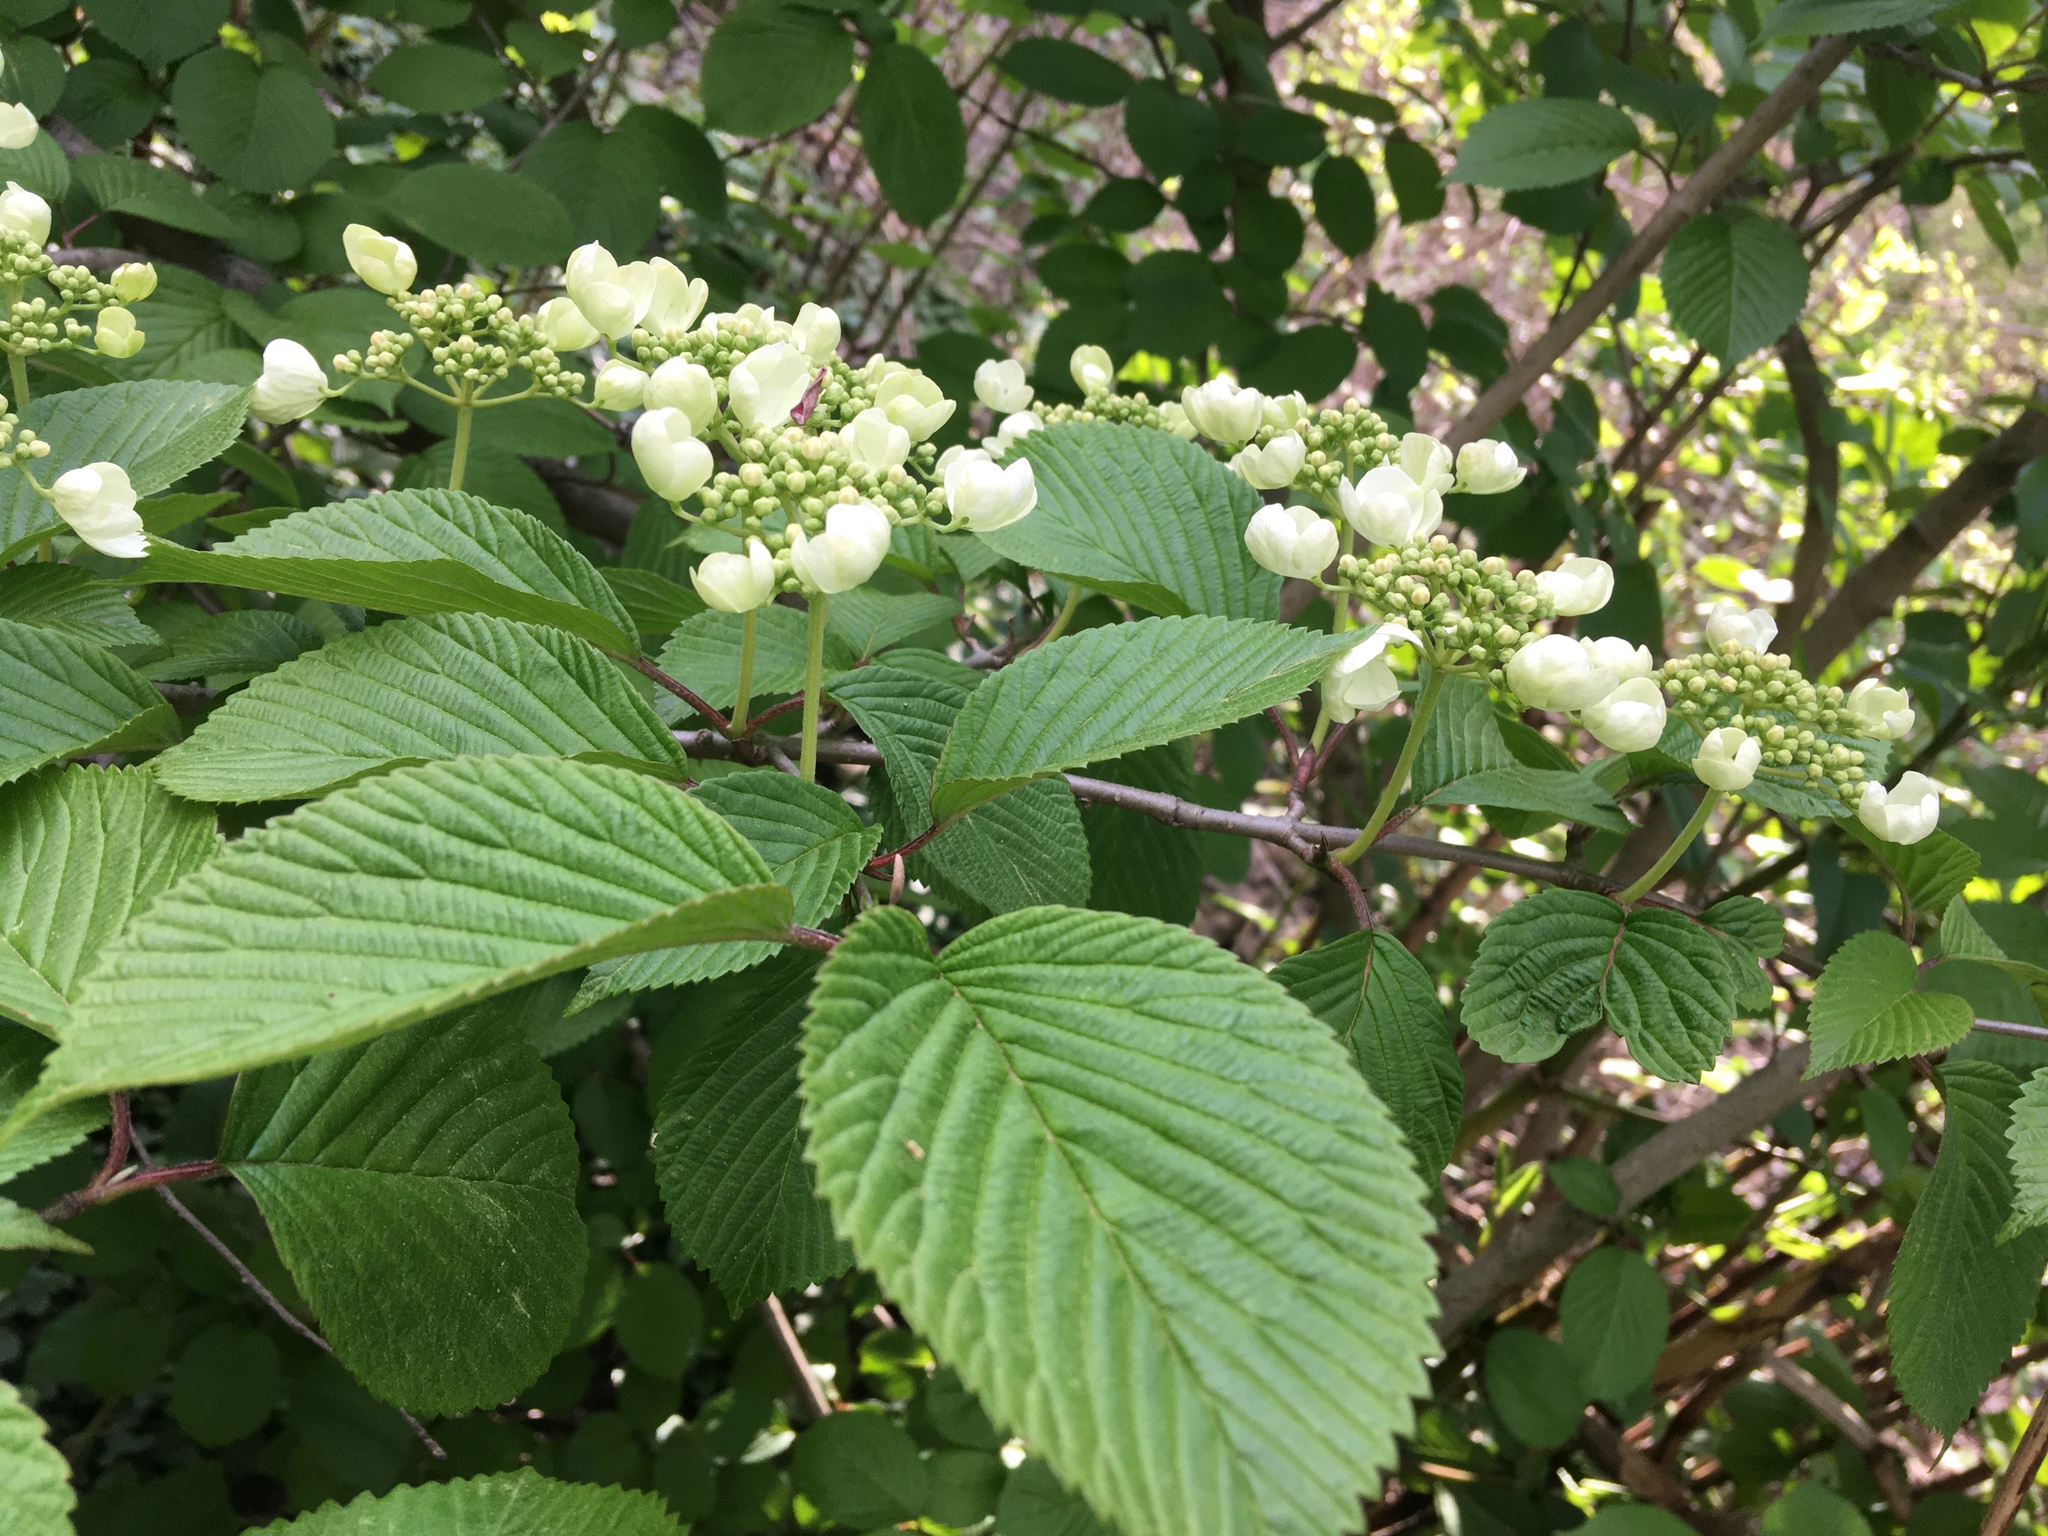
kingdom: Plantae
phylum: Tracheophyta
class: Magnoliopsida
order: Dipsacales
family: Viburnaceae
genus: Viburnum
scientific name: Viburnum plicatum
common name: Japanese snowball
